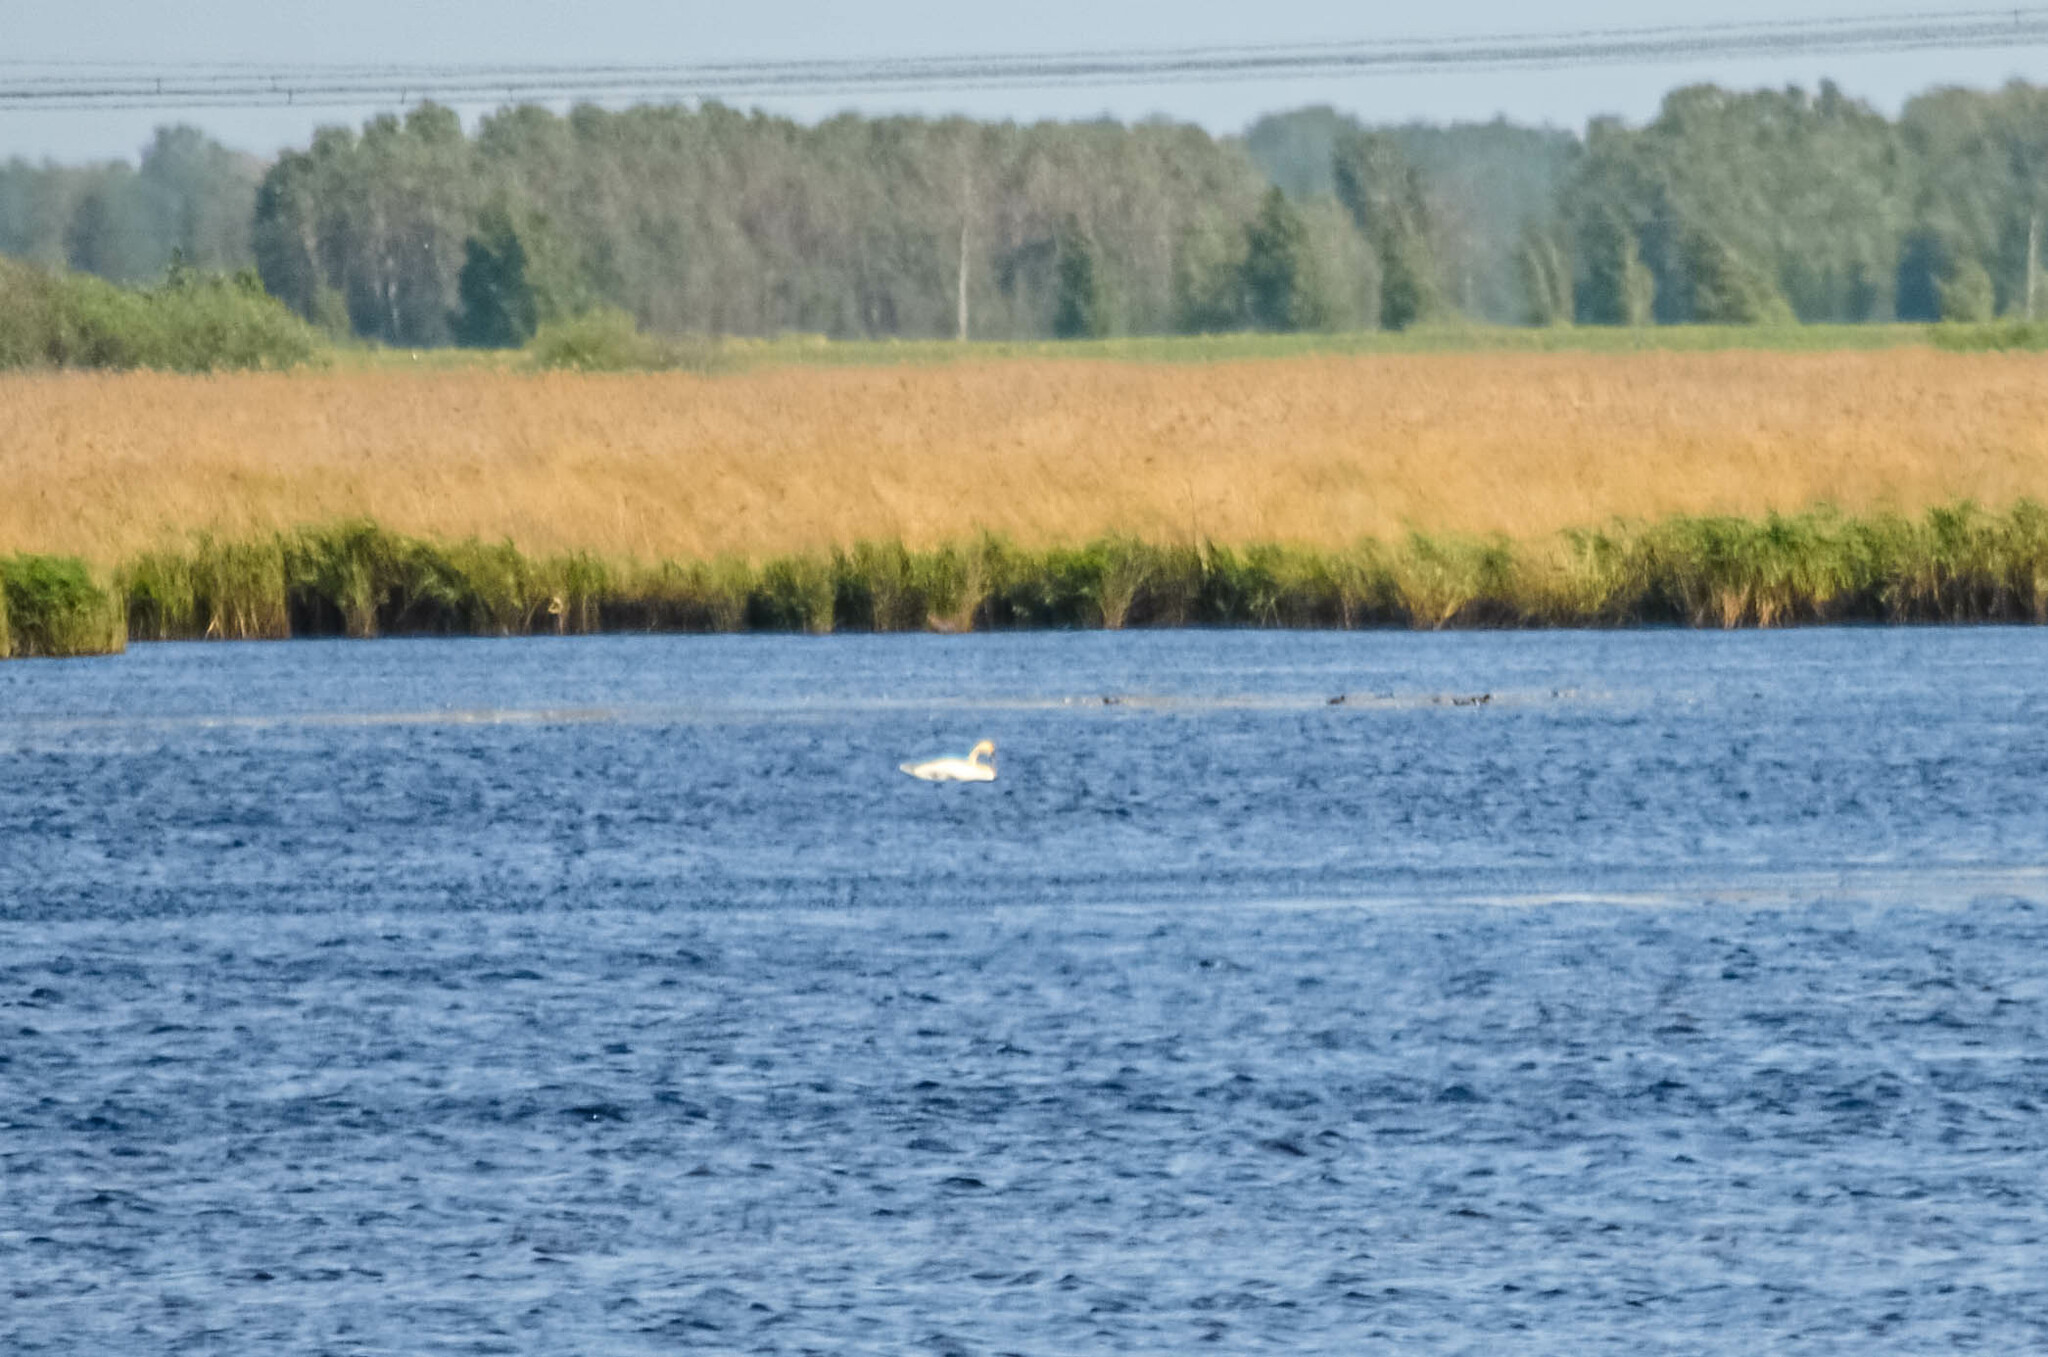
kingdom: Animalia
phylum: Chordata
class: Aves
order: Anseriformes
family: Anatidae
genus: Cygnus
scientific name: Cygnus olor
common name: Mute swan
